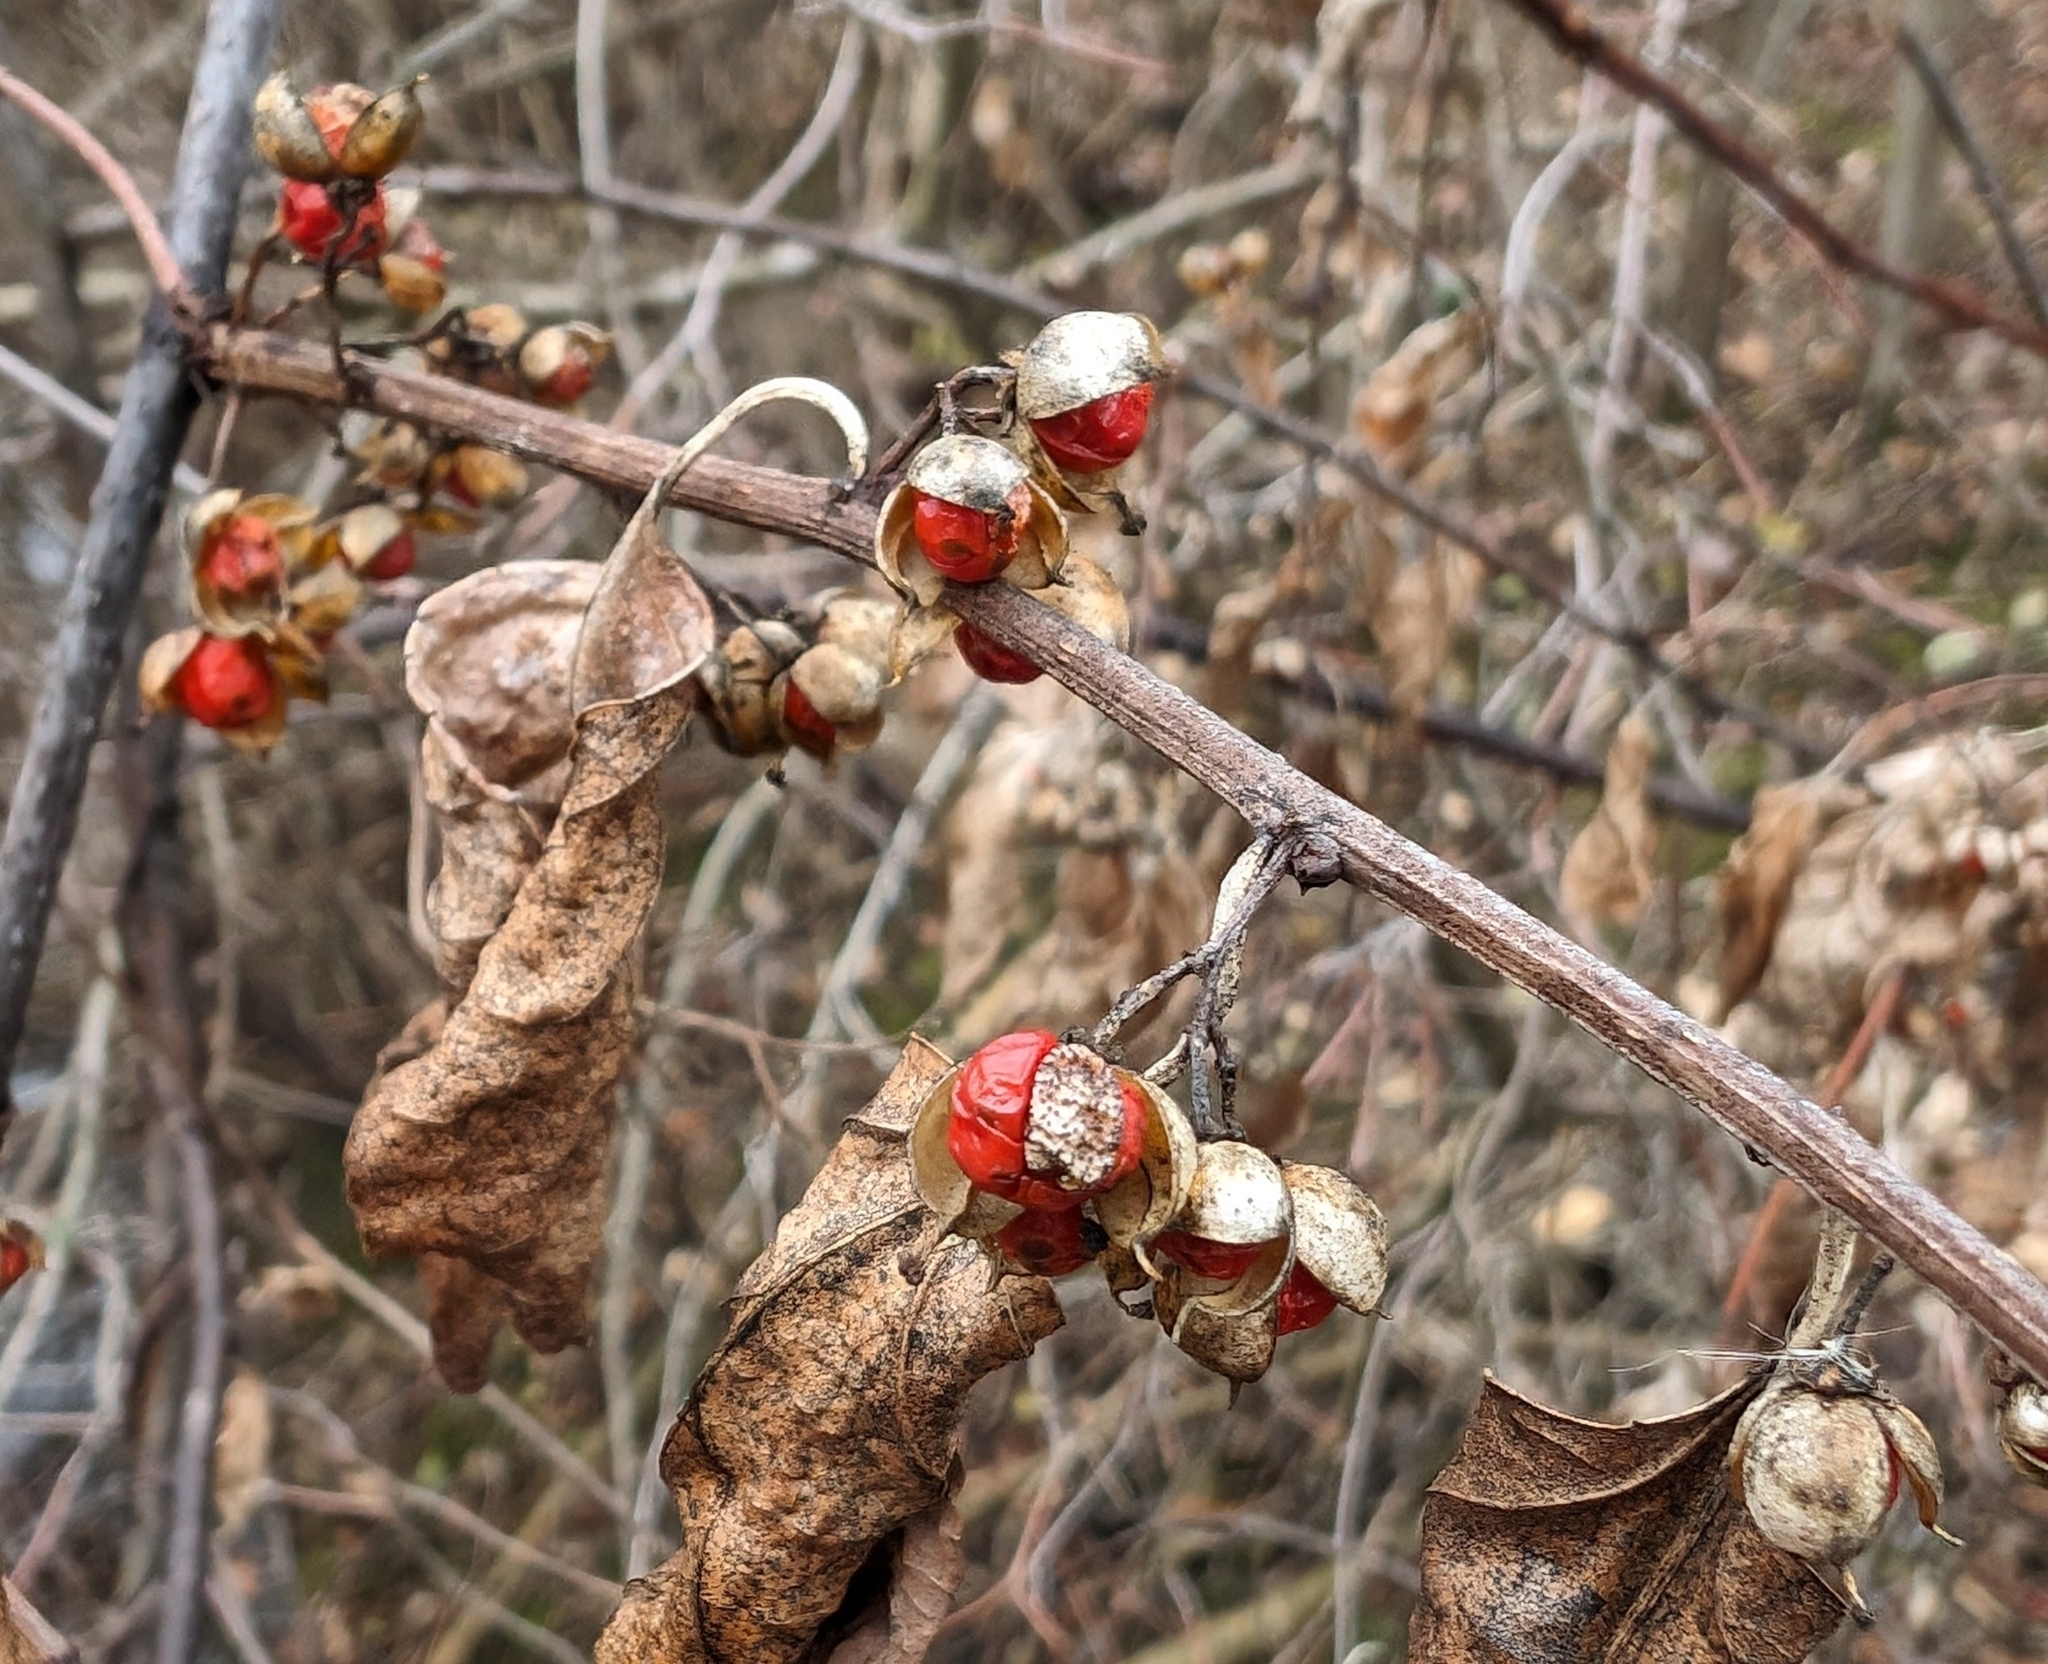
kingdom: Plantae
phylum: Tracheophyta
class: Magnoliopsida
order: Celastrales
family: Celastraceae
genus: Celastrus
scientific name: Celastrus orbiculatus
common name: Oriental bittersweet
